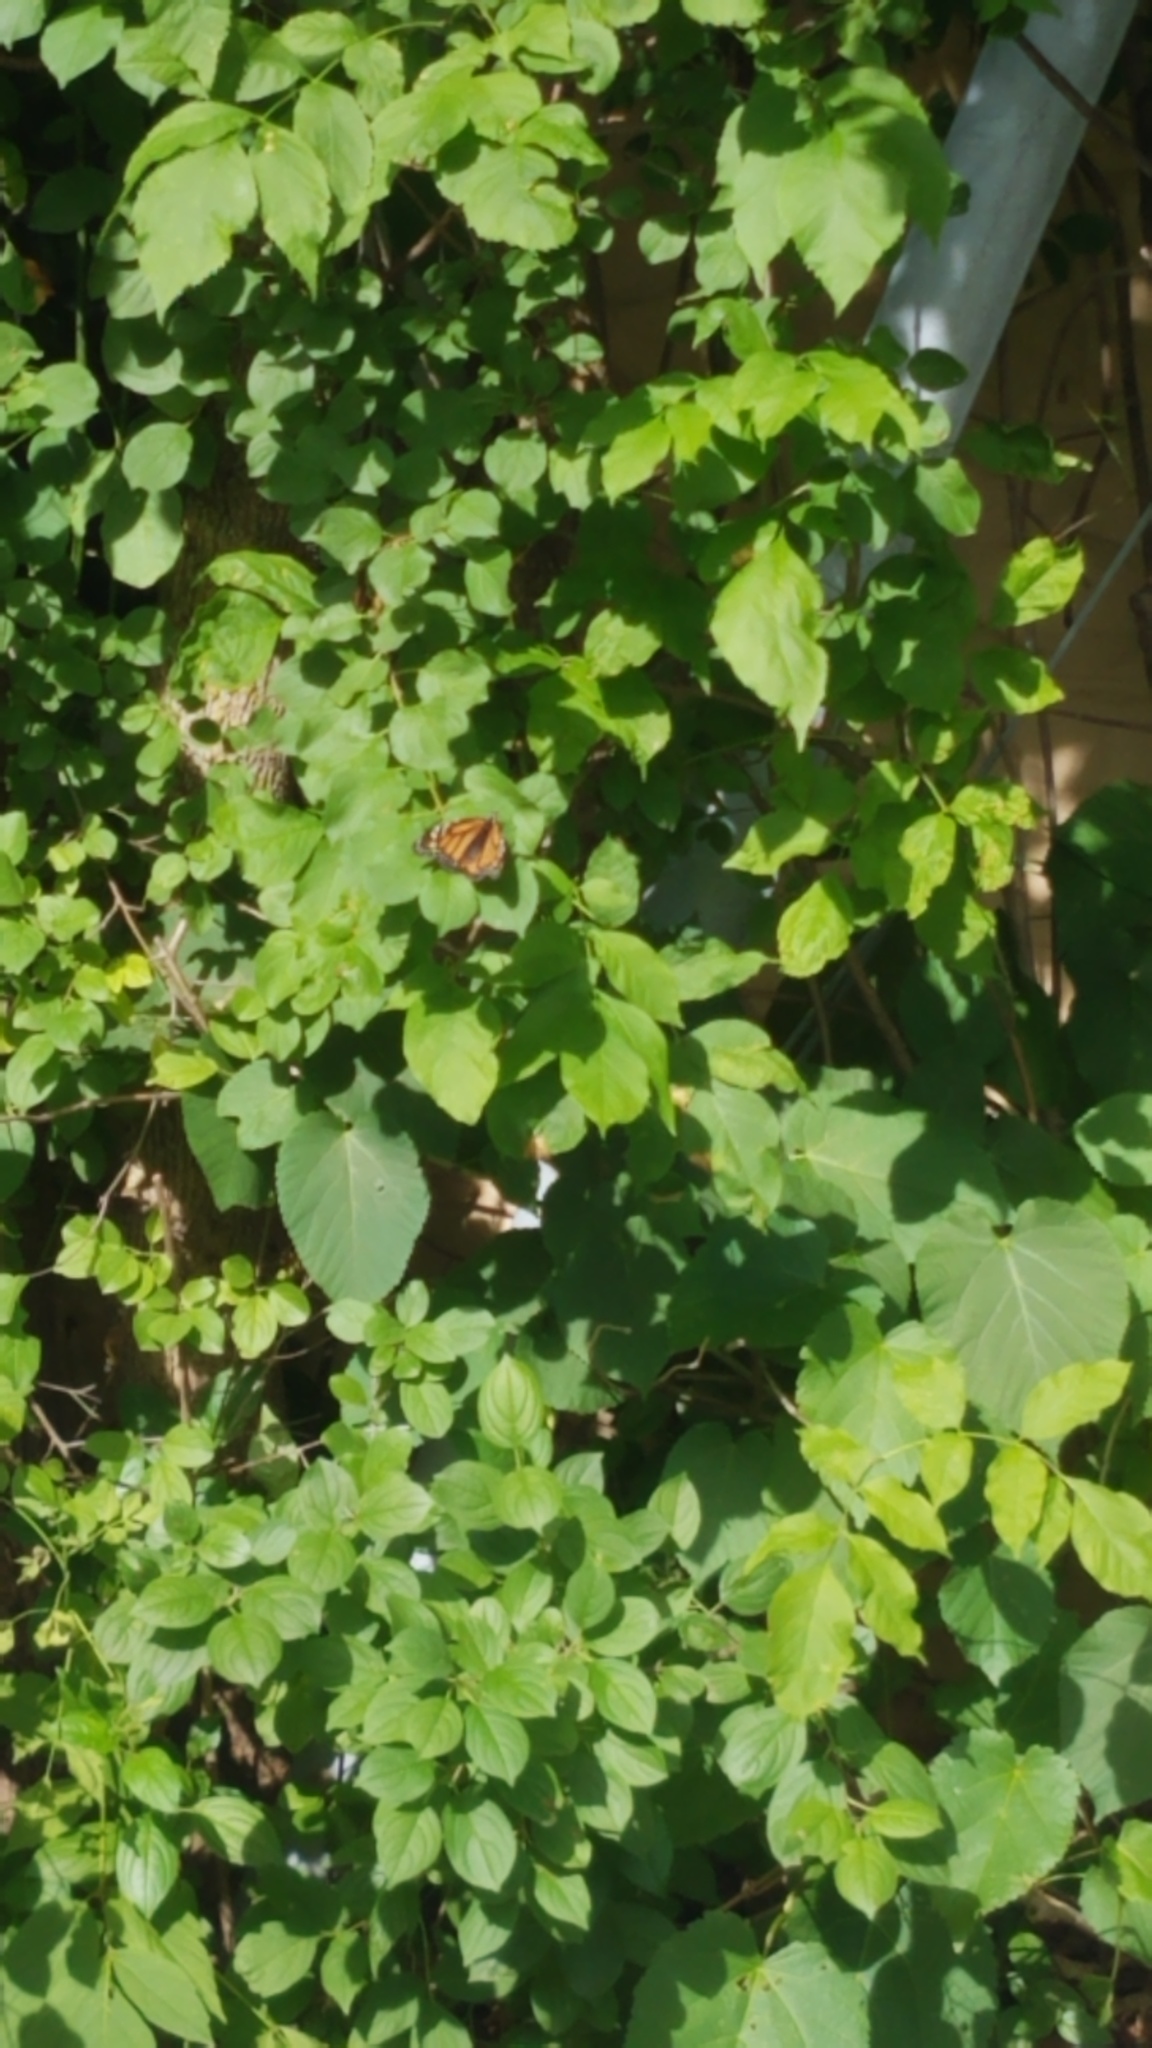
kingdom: Animalia
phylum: Arthropoda
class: Insecta
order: Lepidoptera
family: Nymphalidae
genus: Danaus
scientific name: Danaus plexippus
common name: Monarch
